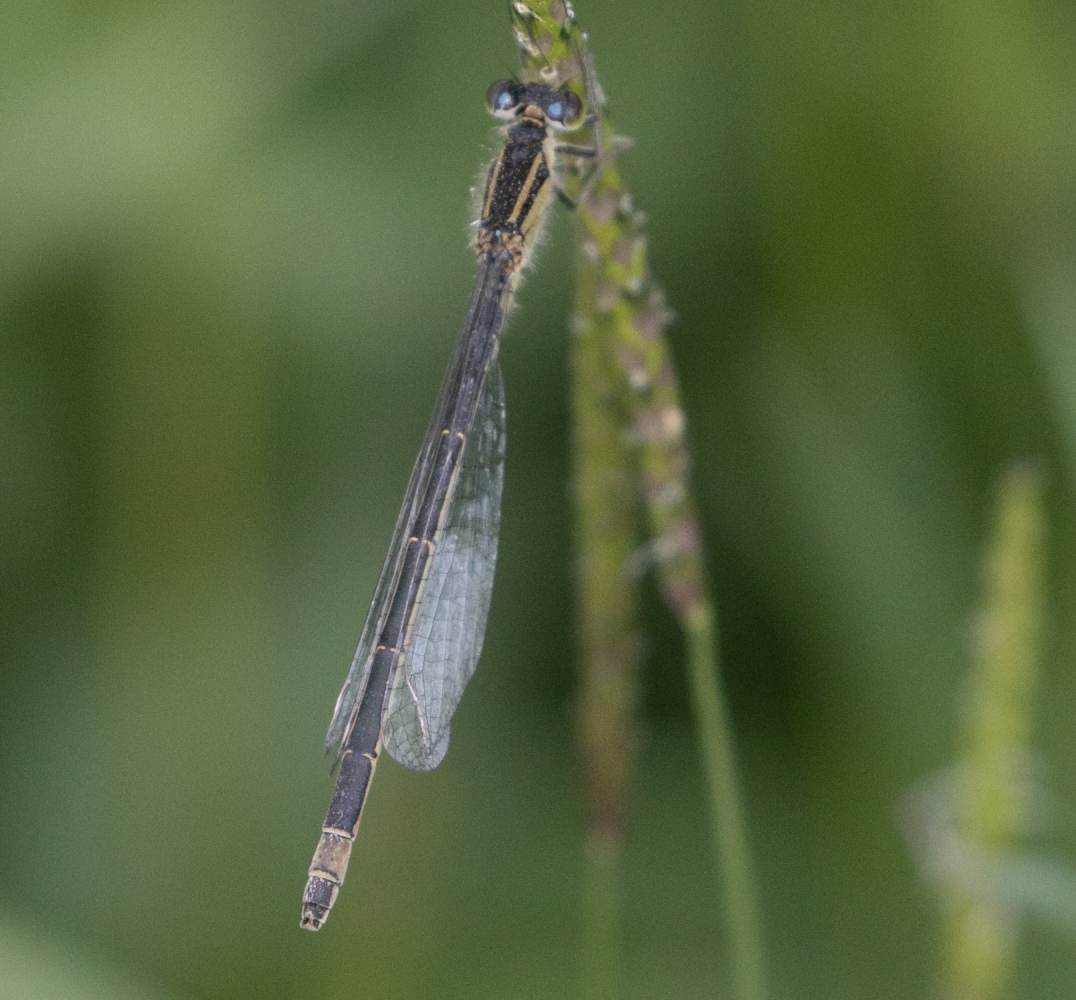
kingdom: Animalia
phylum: Arthropoda
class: Insecta
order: Odonata
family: Coenagrionidae
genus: Ischnura
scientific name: Ischnura elegans
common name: Blue-tailed damselfly
